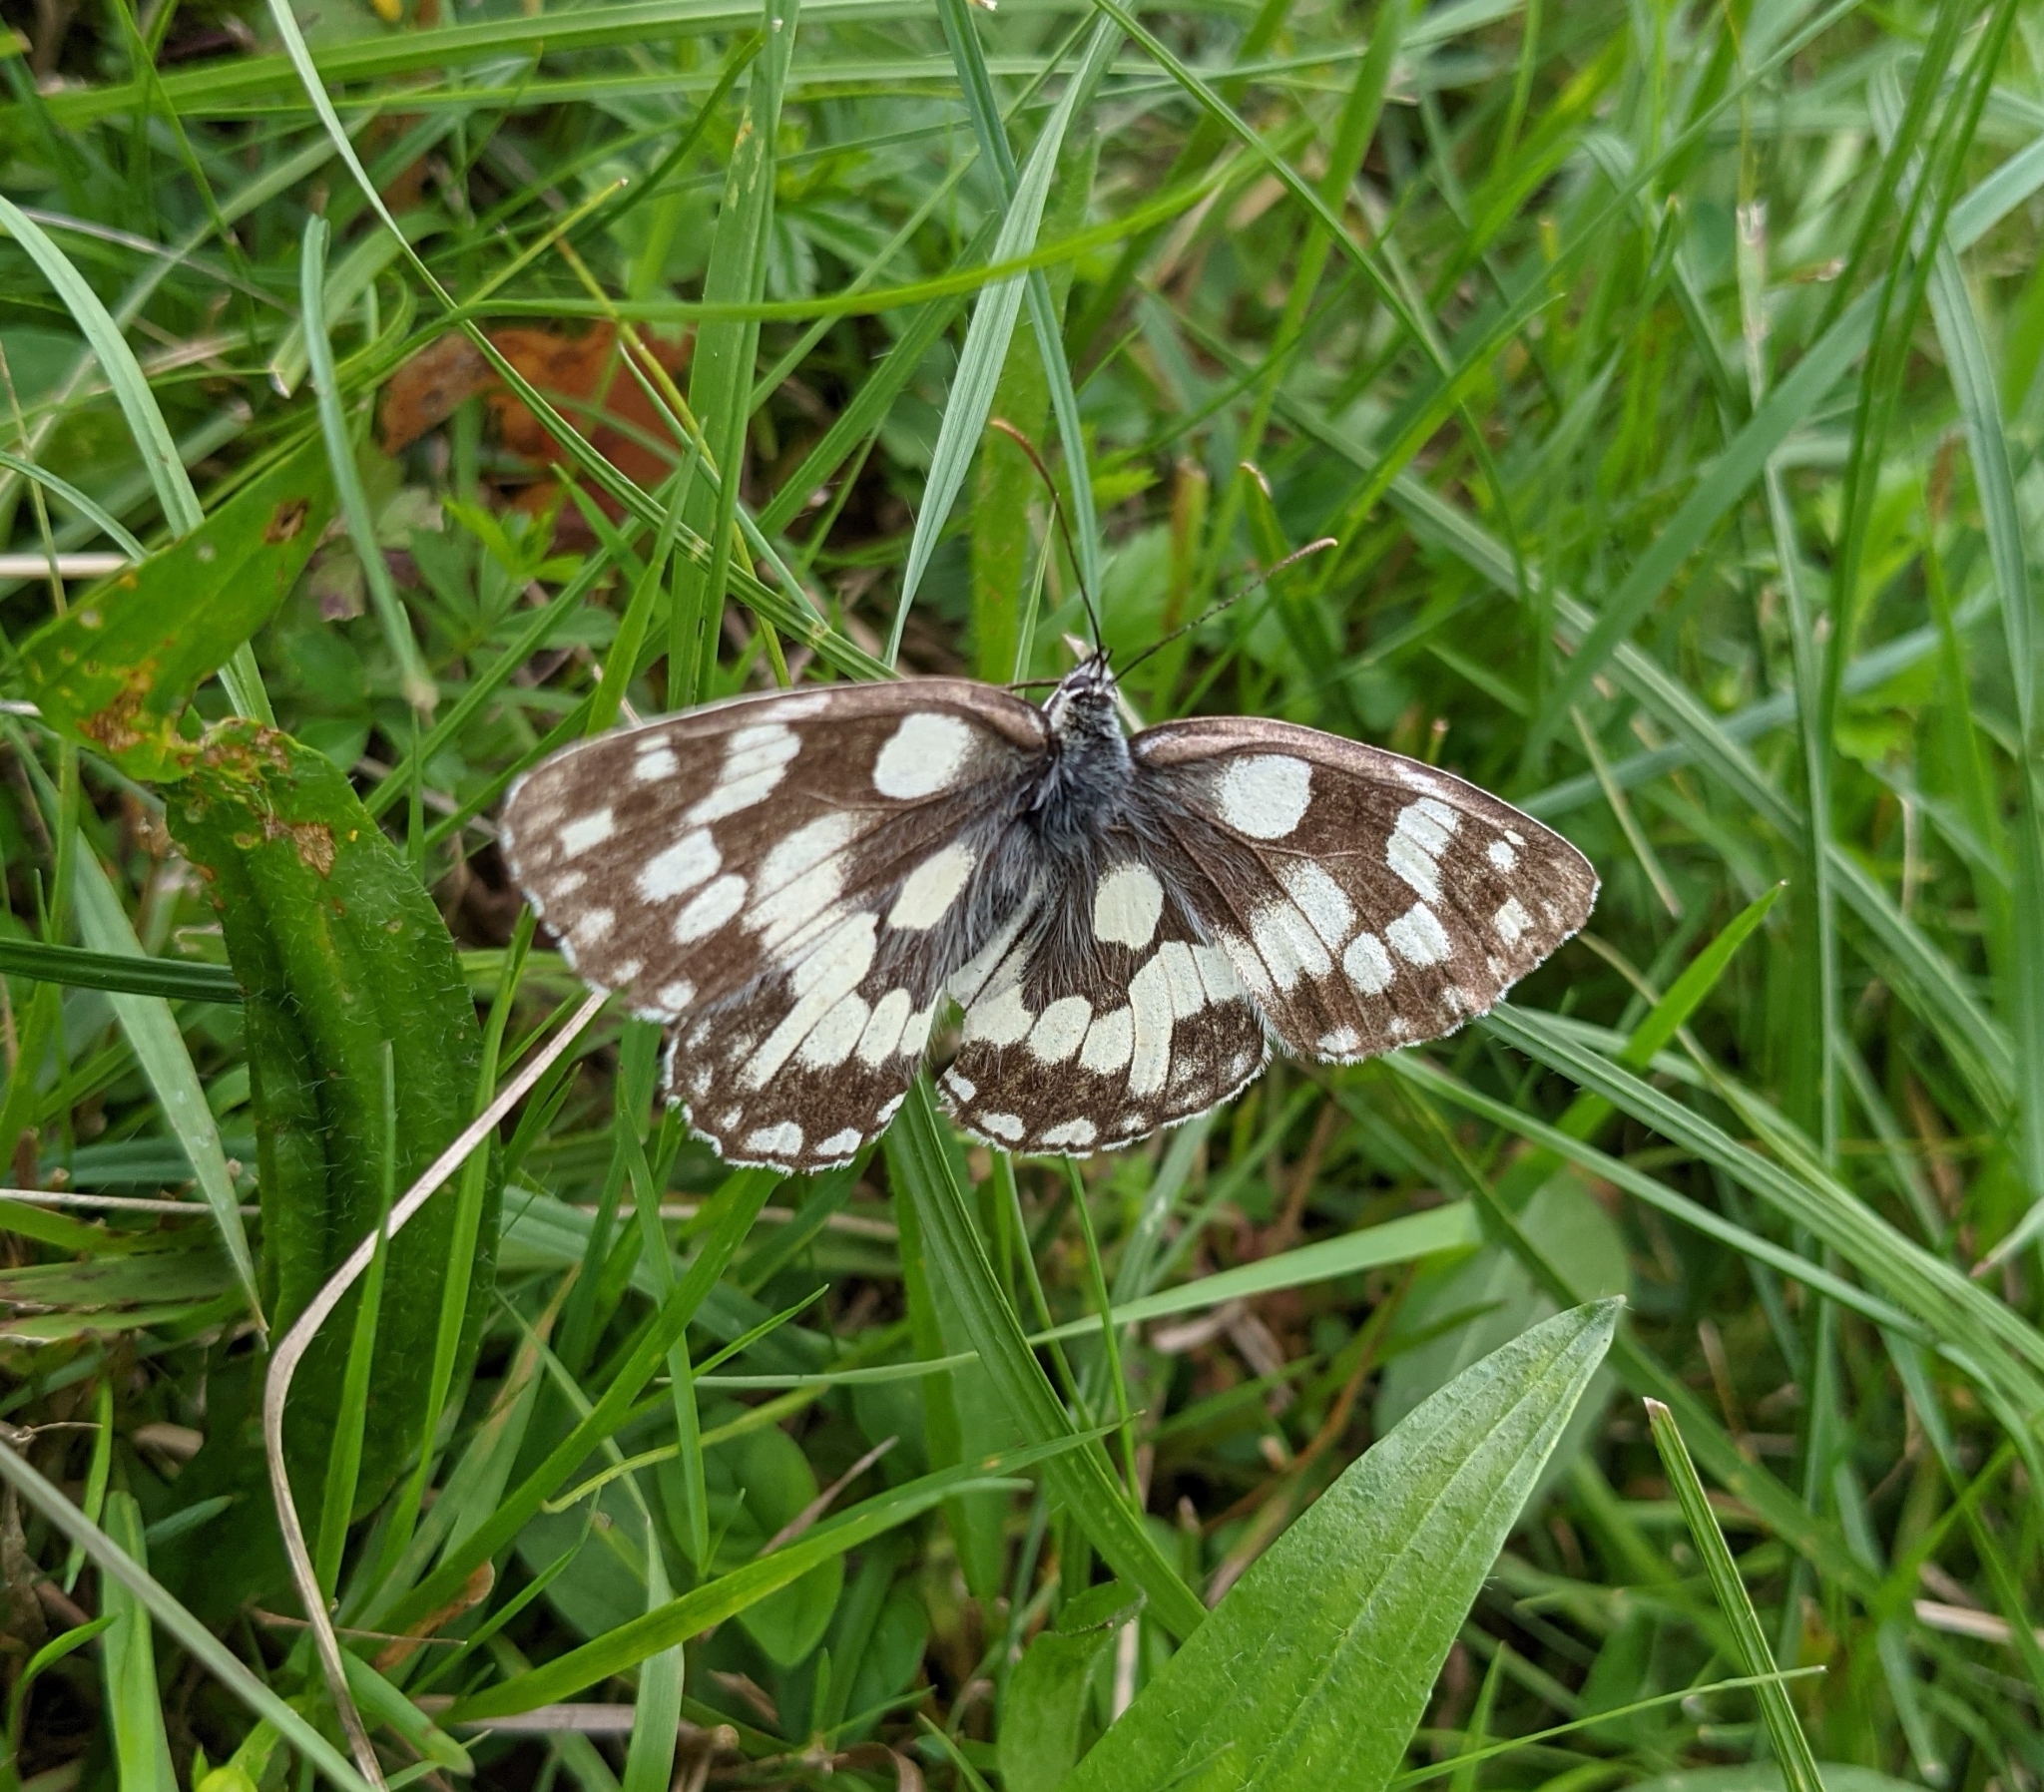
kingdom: Animalia
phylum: Arthropoda
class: Insecta
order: Lepidoptera
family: Nymphalidae
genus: Melanargia
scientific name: Melanargia galathea
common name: Marbled white
